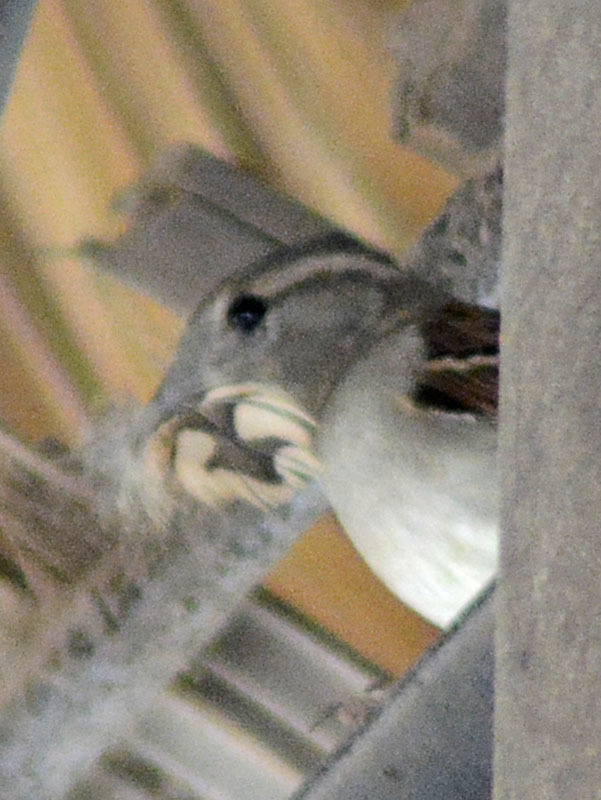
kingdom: Animalia
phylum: Chordata
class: Aves
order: Passeriformes
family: Passeridae
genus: Passer
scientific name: Passer domesticus
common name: House sparrow
